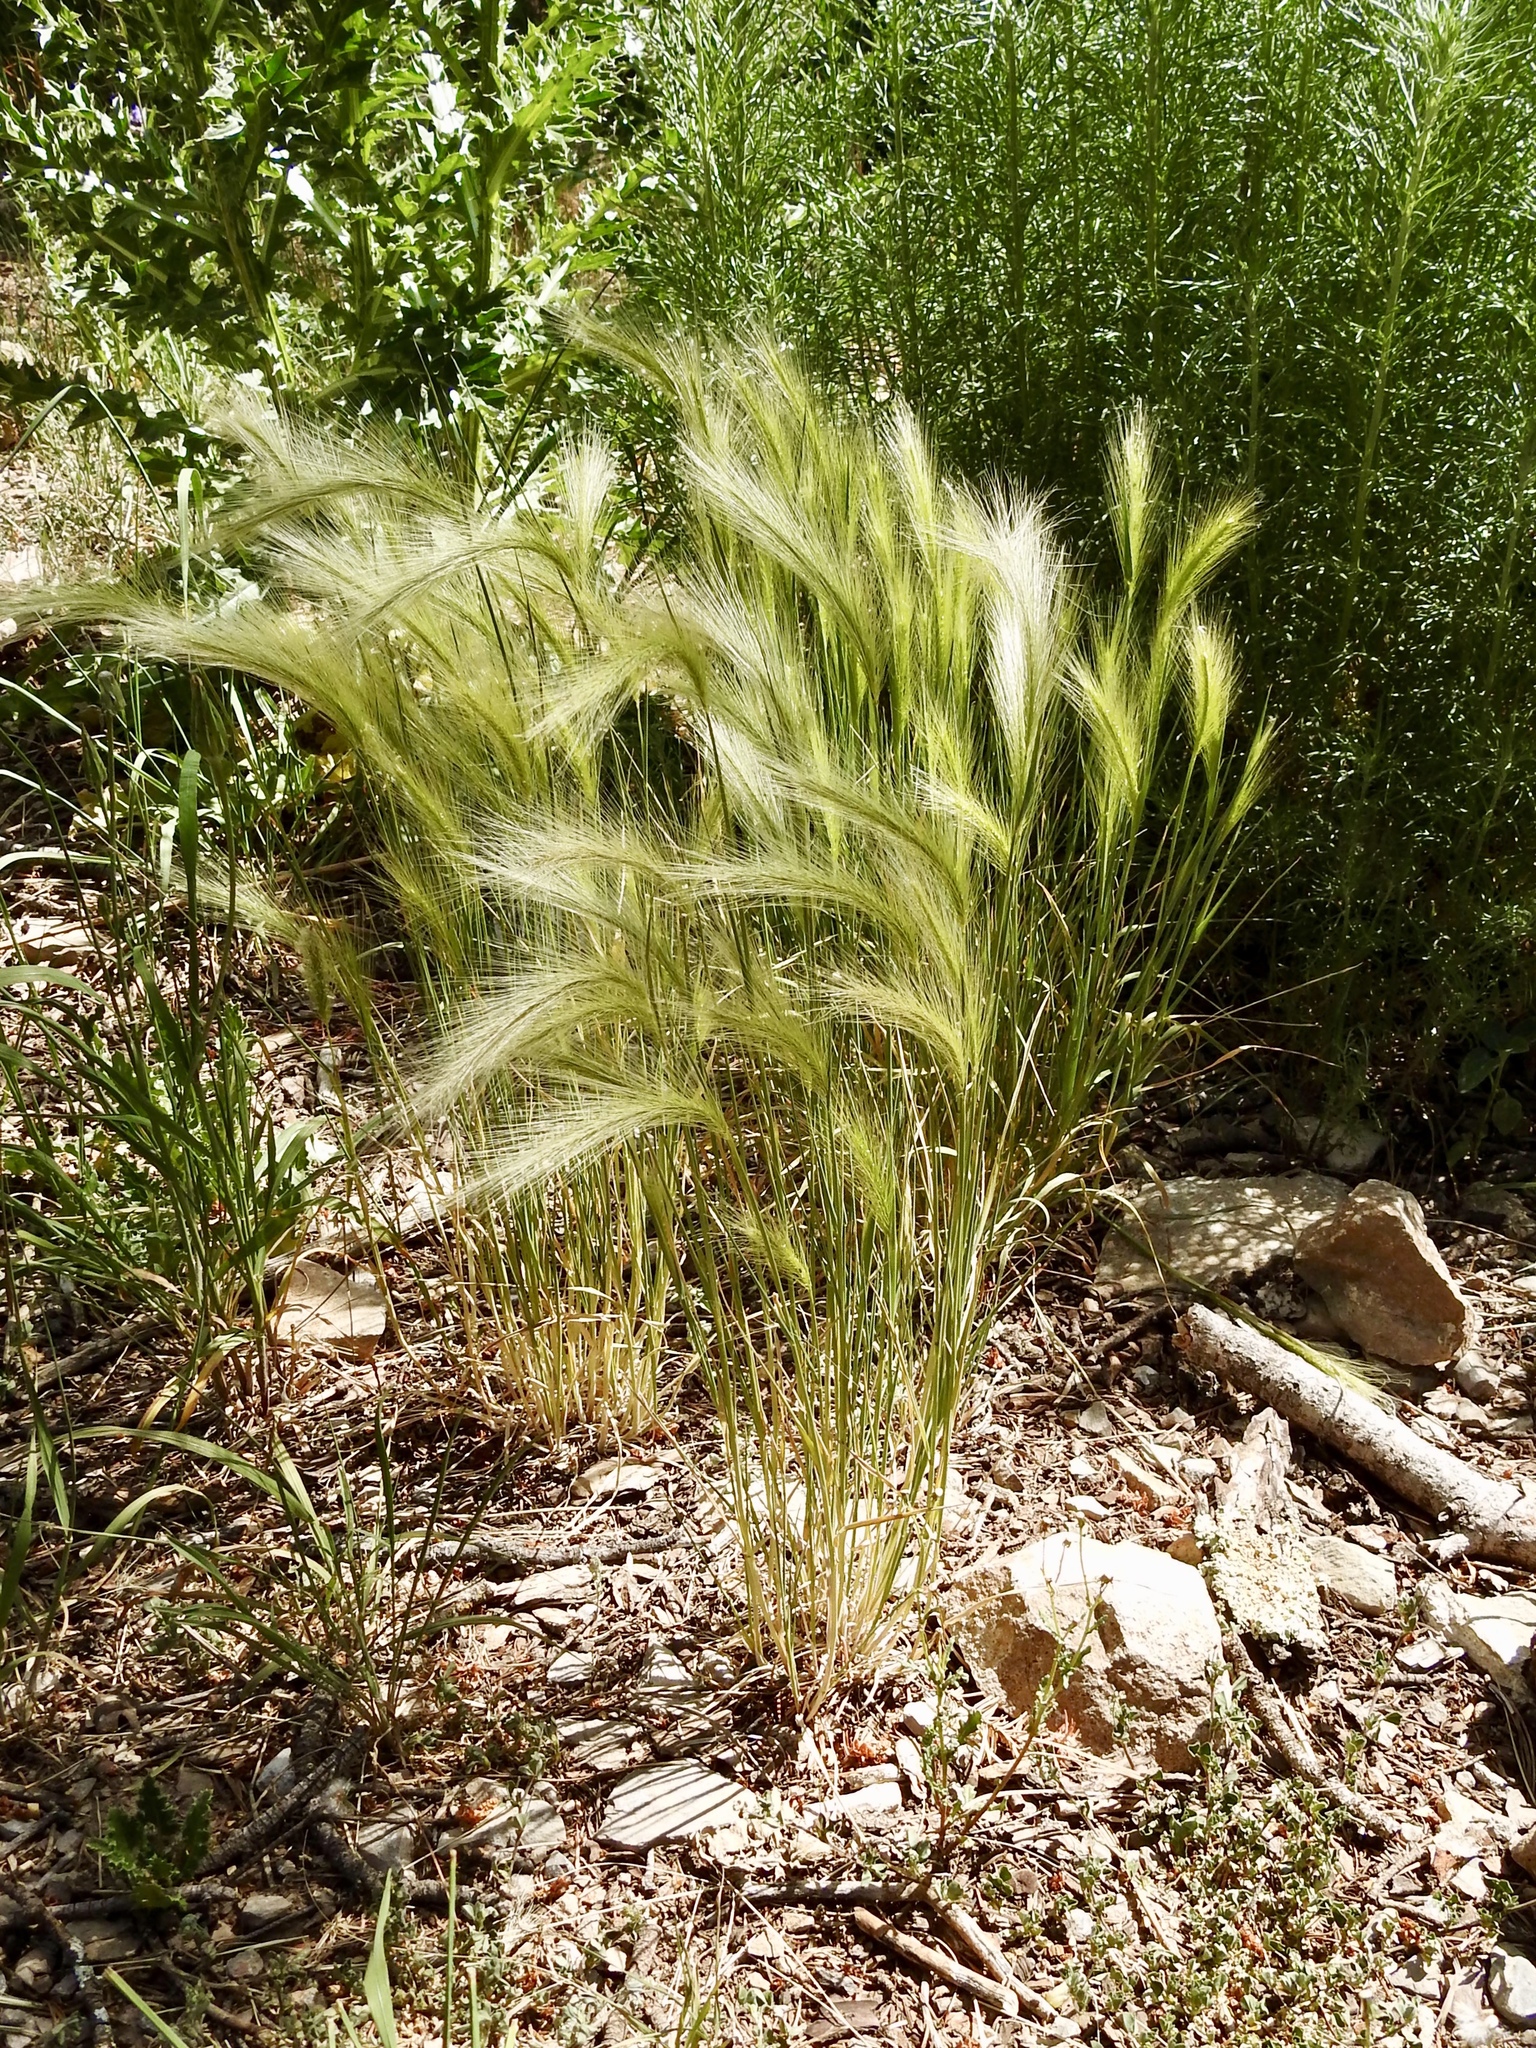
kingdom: Plantae
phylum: Tracheophyta
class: Liliopsida
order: Poales
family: Poaceae
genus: Hordeum
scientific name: Hordeum jubatum
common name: Foxtail barley
